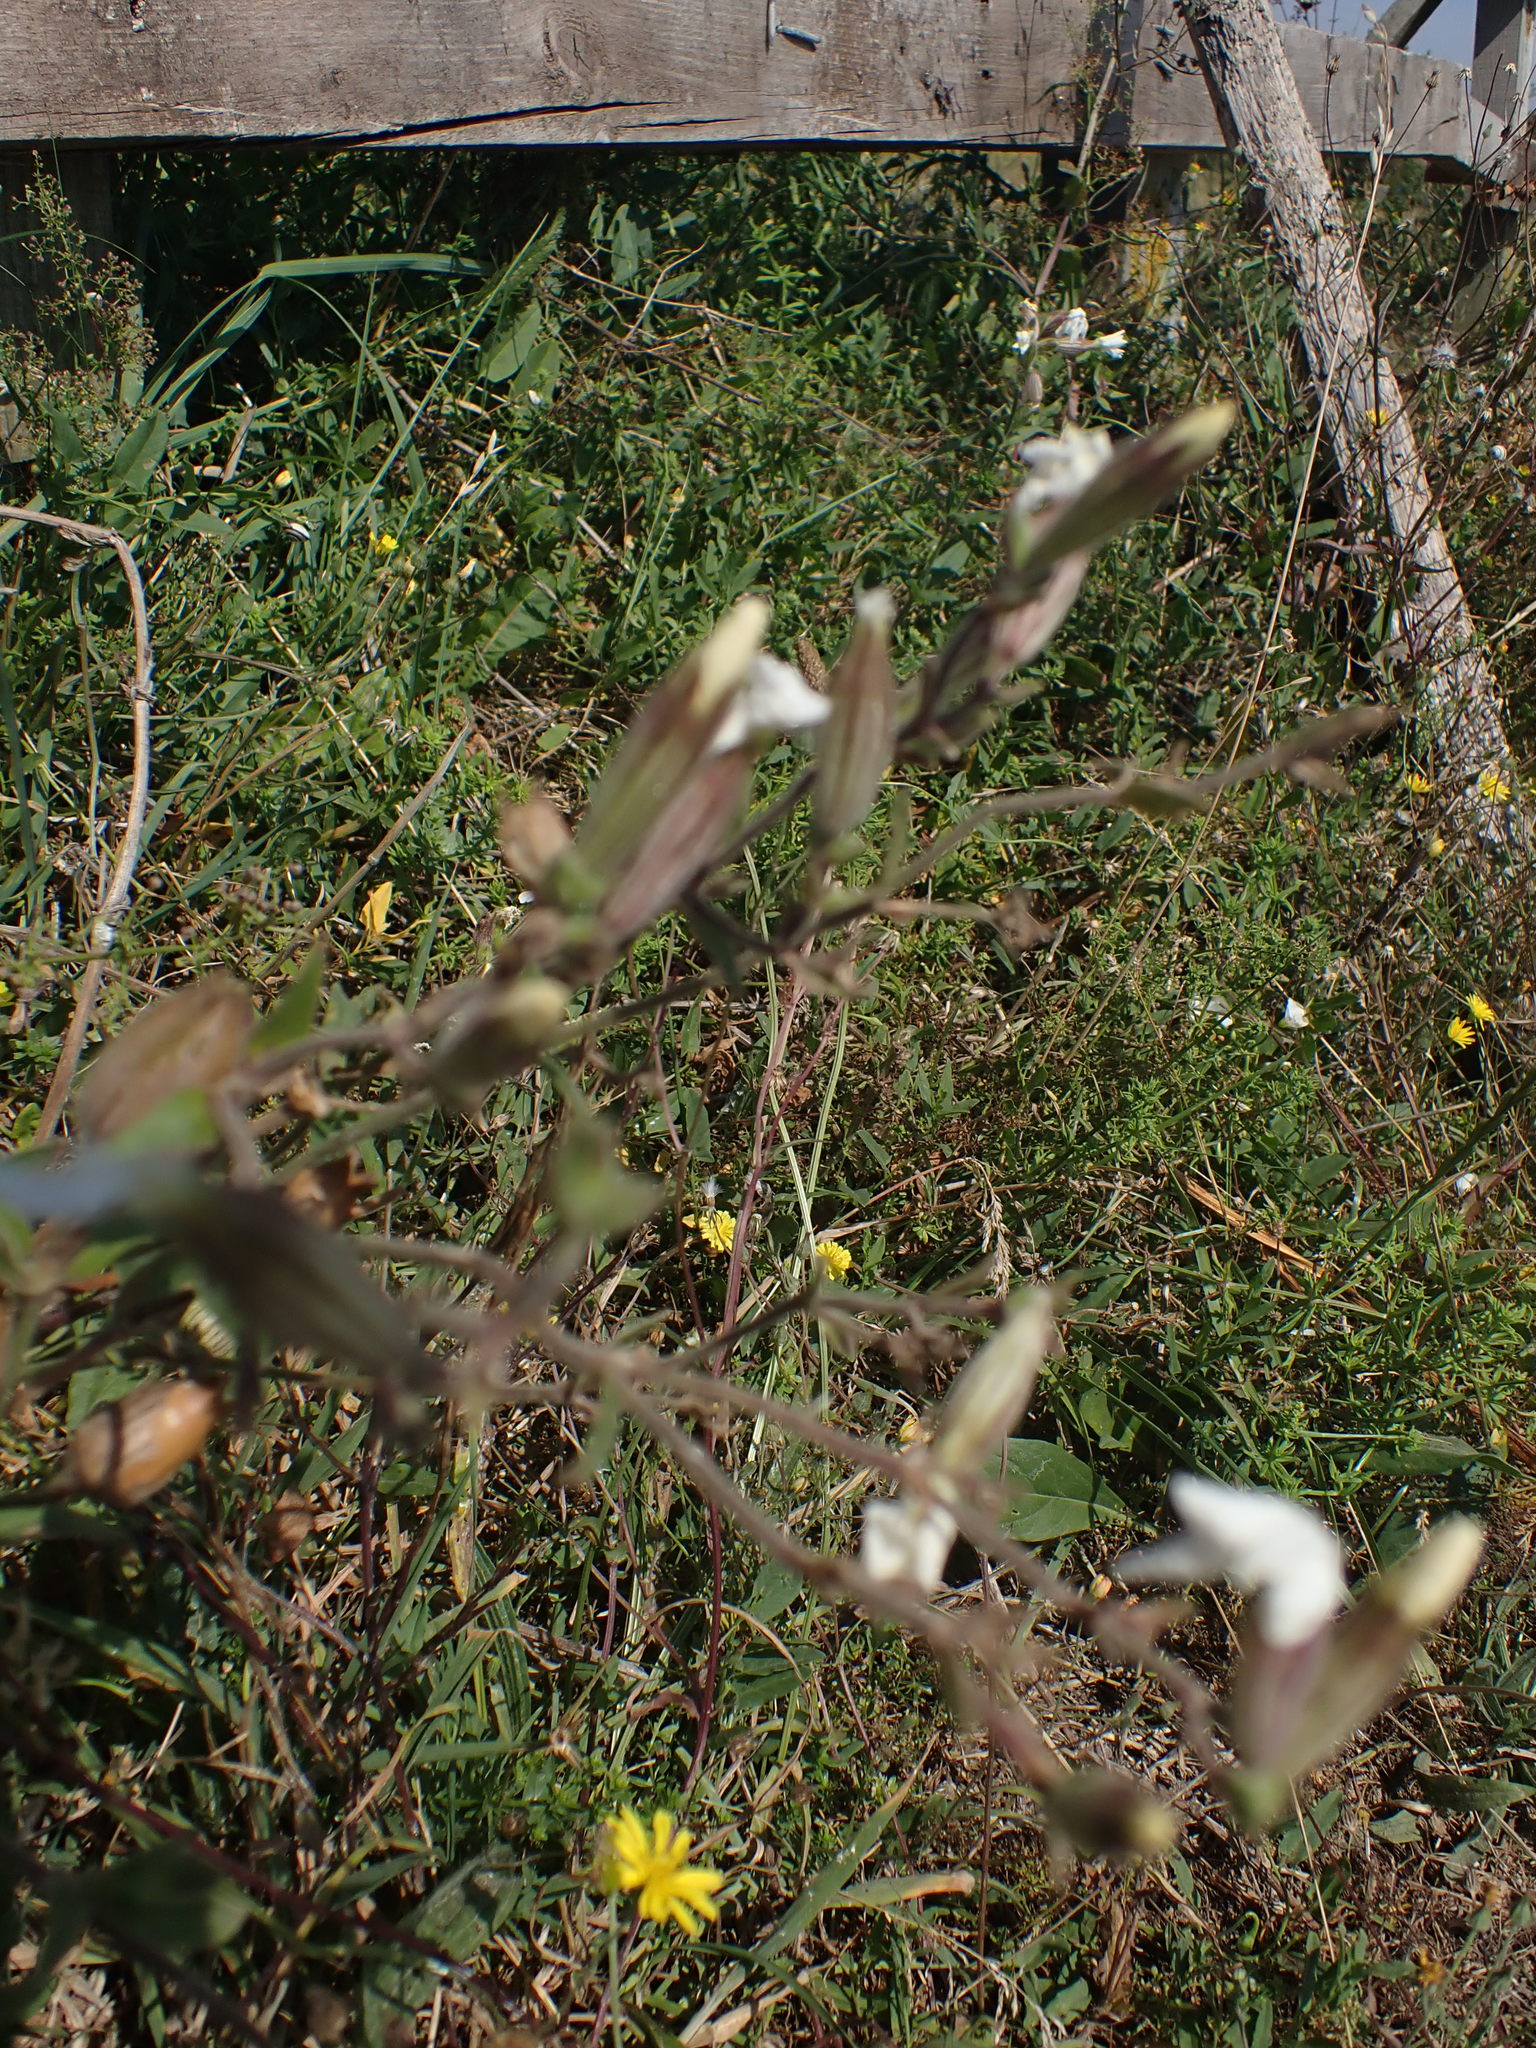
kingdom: Plantae
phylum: Tracheophyta
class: Magnoliopsida
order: Caryophyllales
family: Caryophyllaceae
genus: Silene
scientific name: Silene latifolia
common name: White campion
